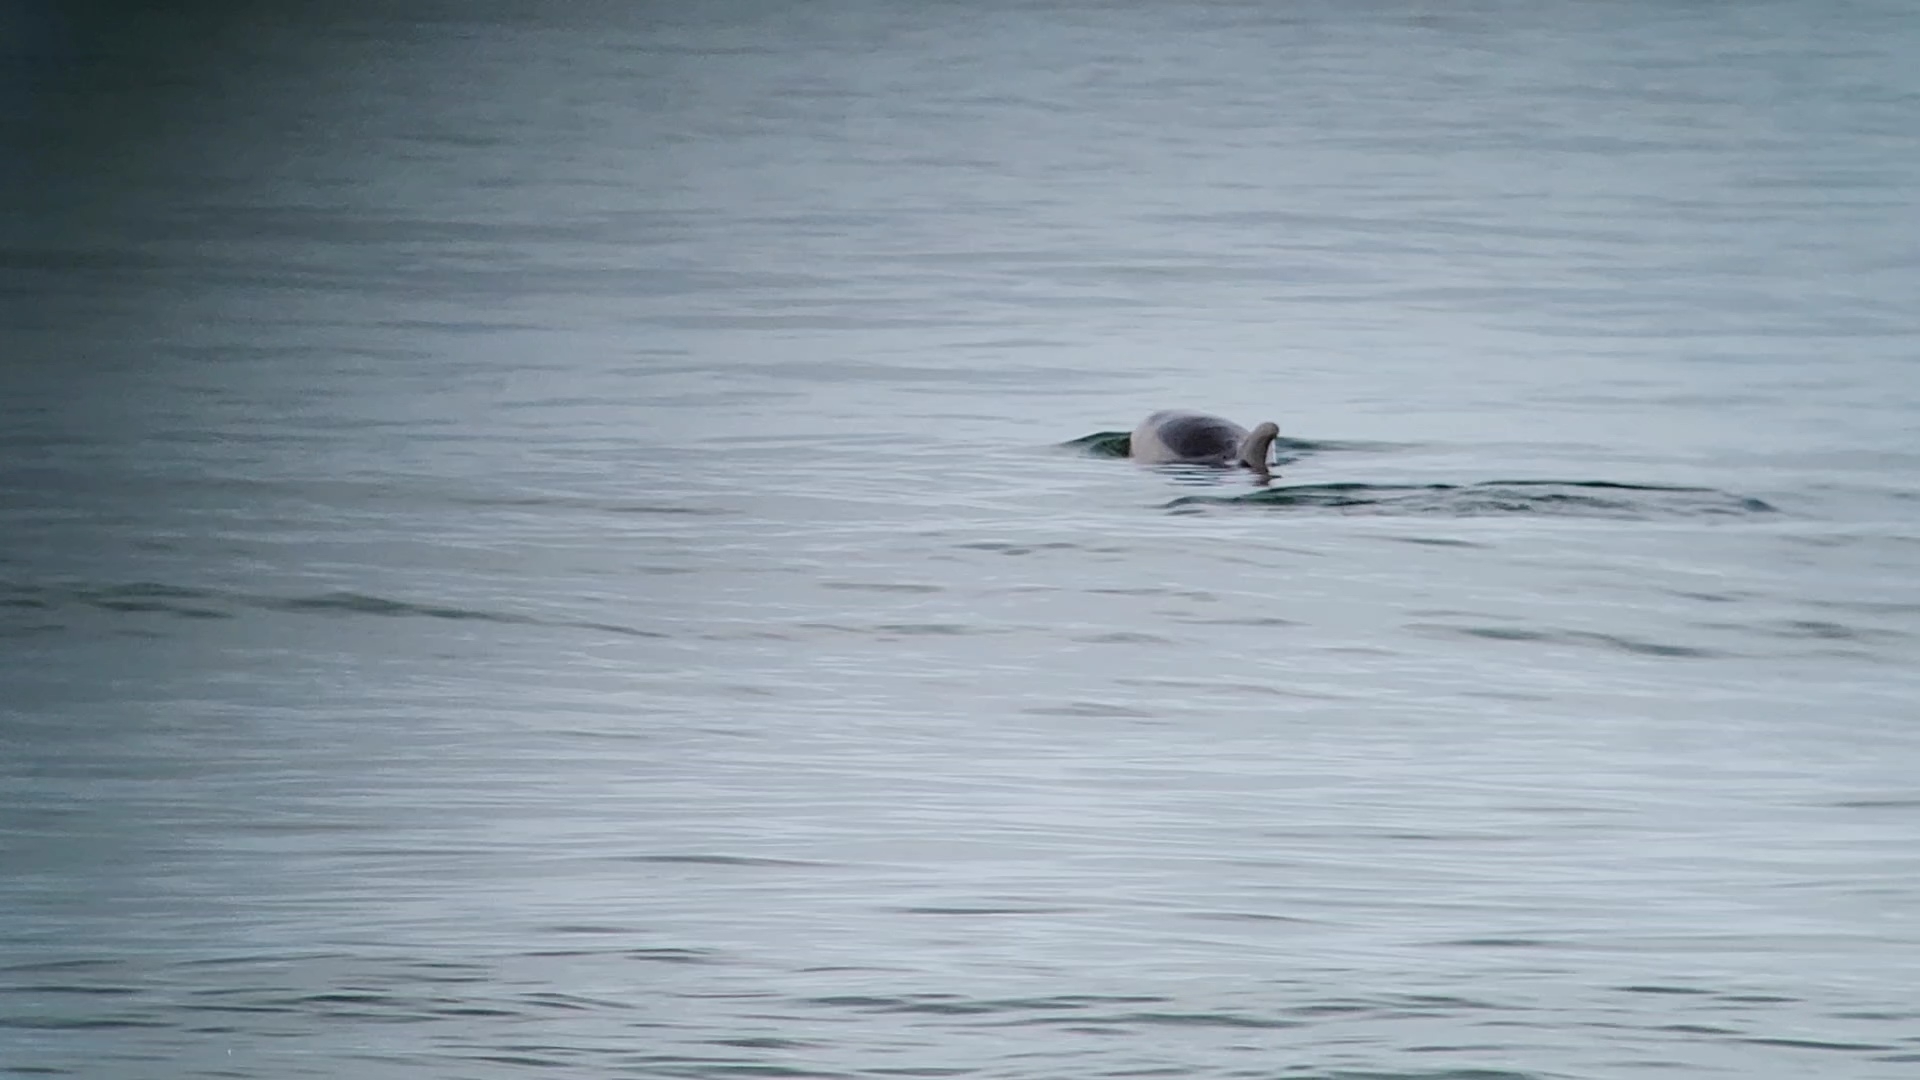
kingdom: Animalia
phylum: Chordata
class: Mammalia
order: Cetacea
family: Delphinidae
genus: Tursiops
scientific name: Tursiops truncatus
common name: Bottlenose dolphin
